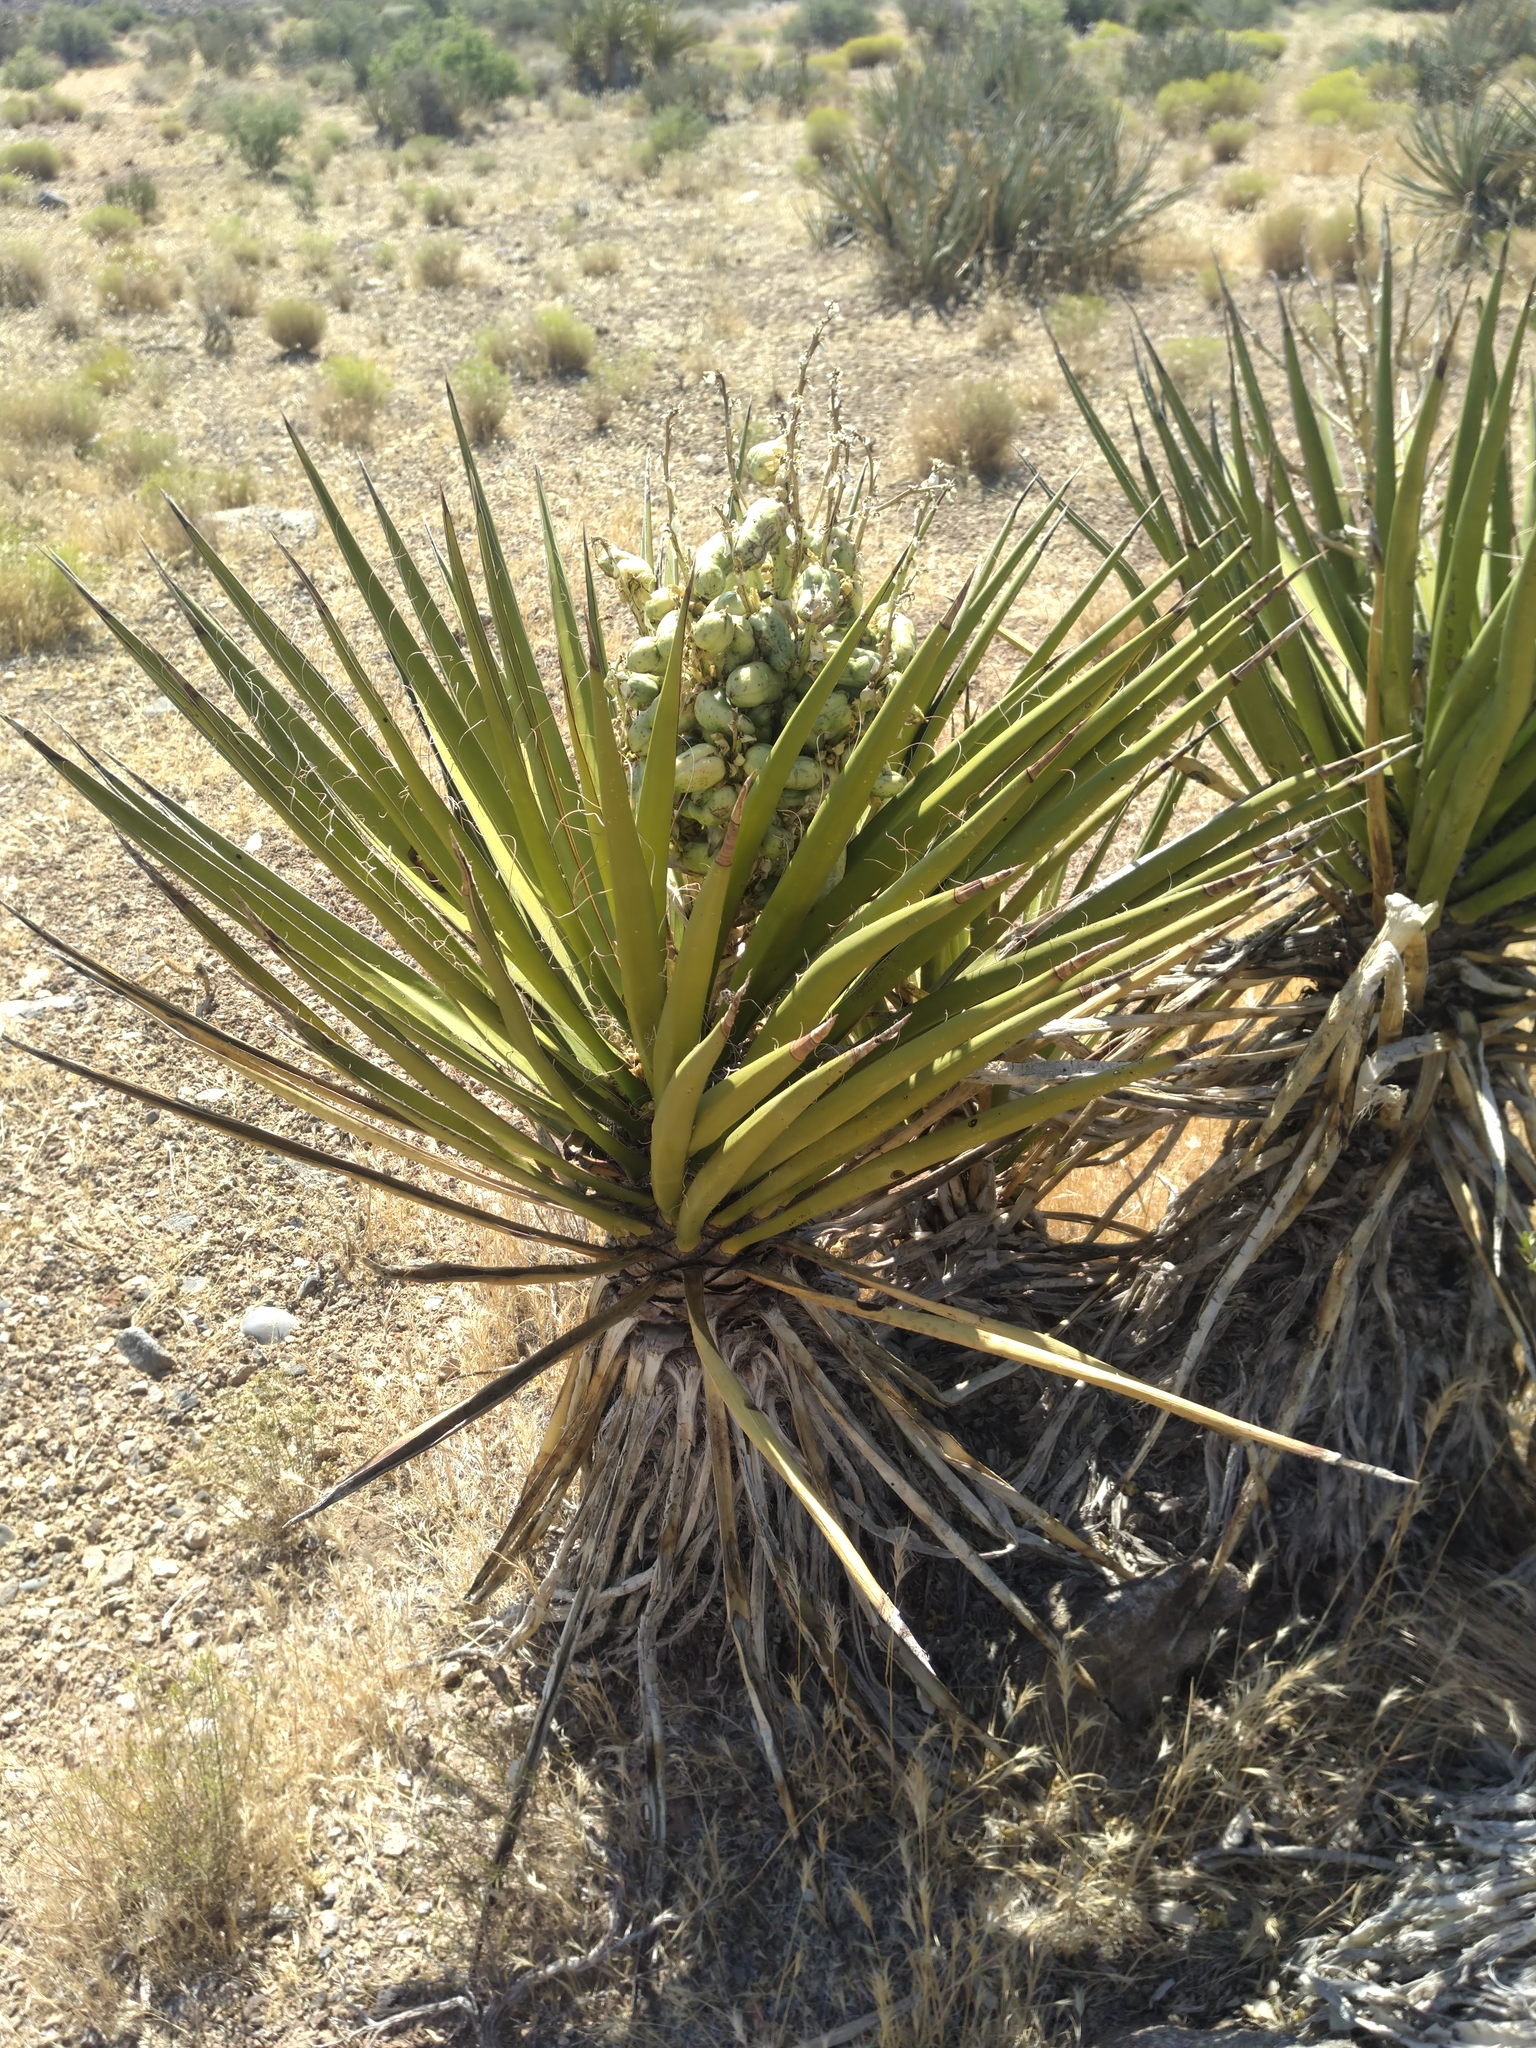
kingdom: Plantae
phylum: Tracheophyta
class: Liliopsida
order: Asparagales
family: Asparagaceae
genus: Yucca
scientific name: Yucca schidigera
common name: Mojave yucca
